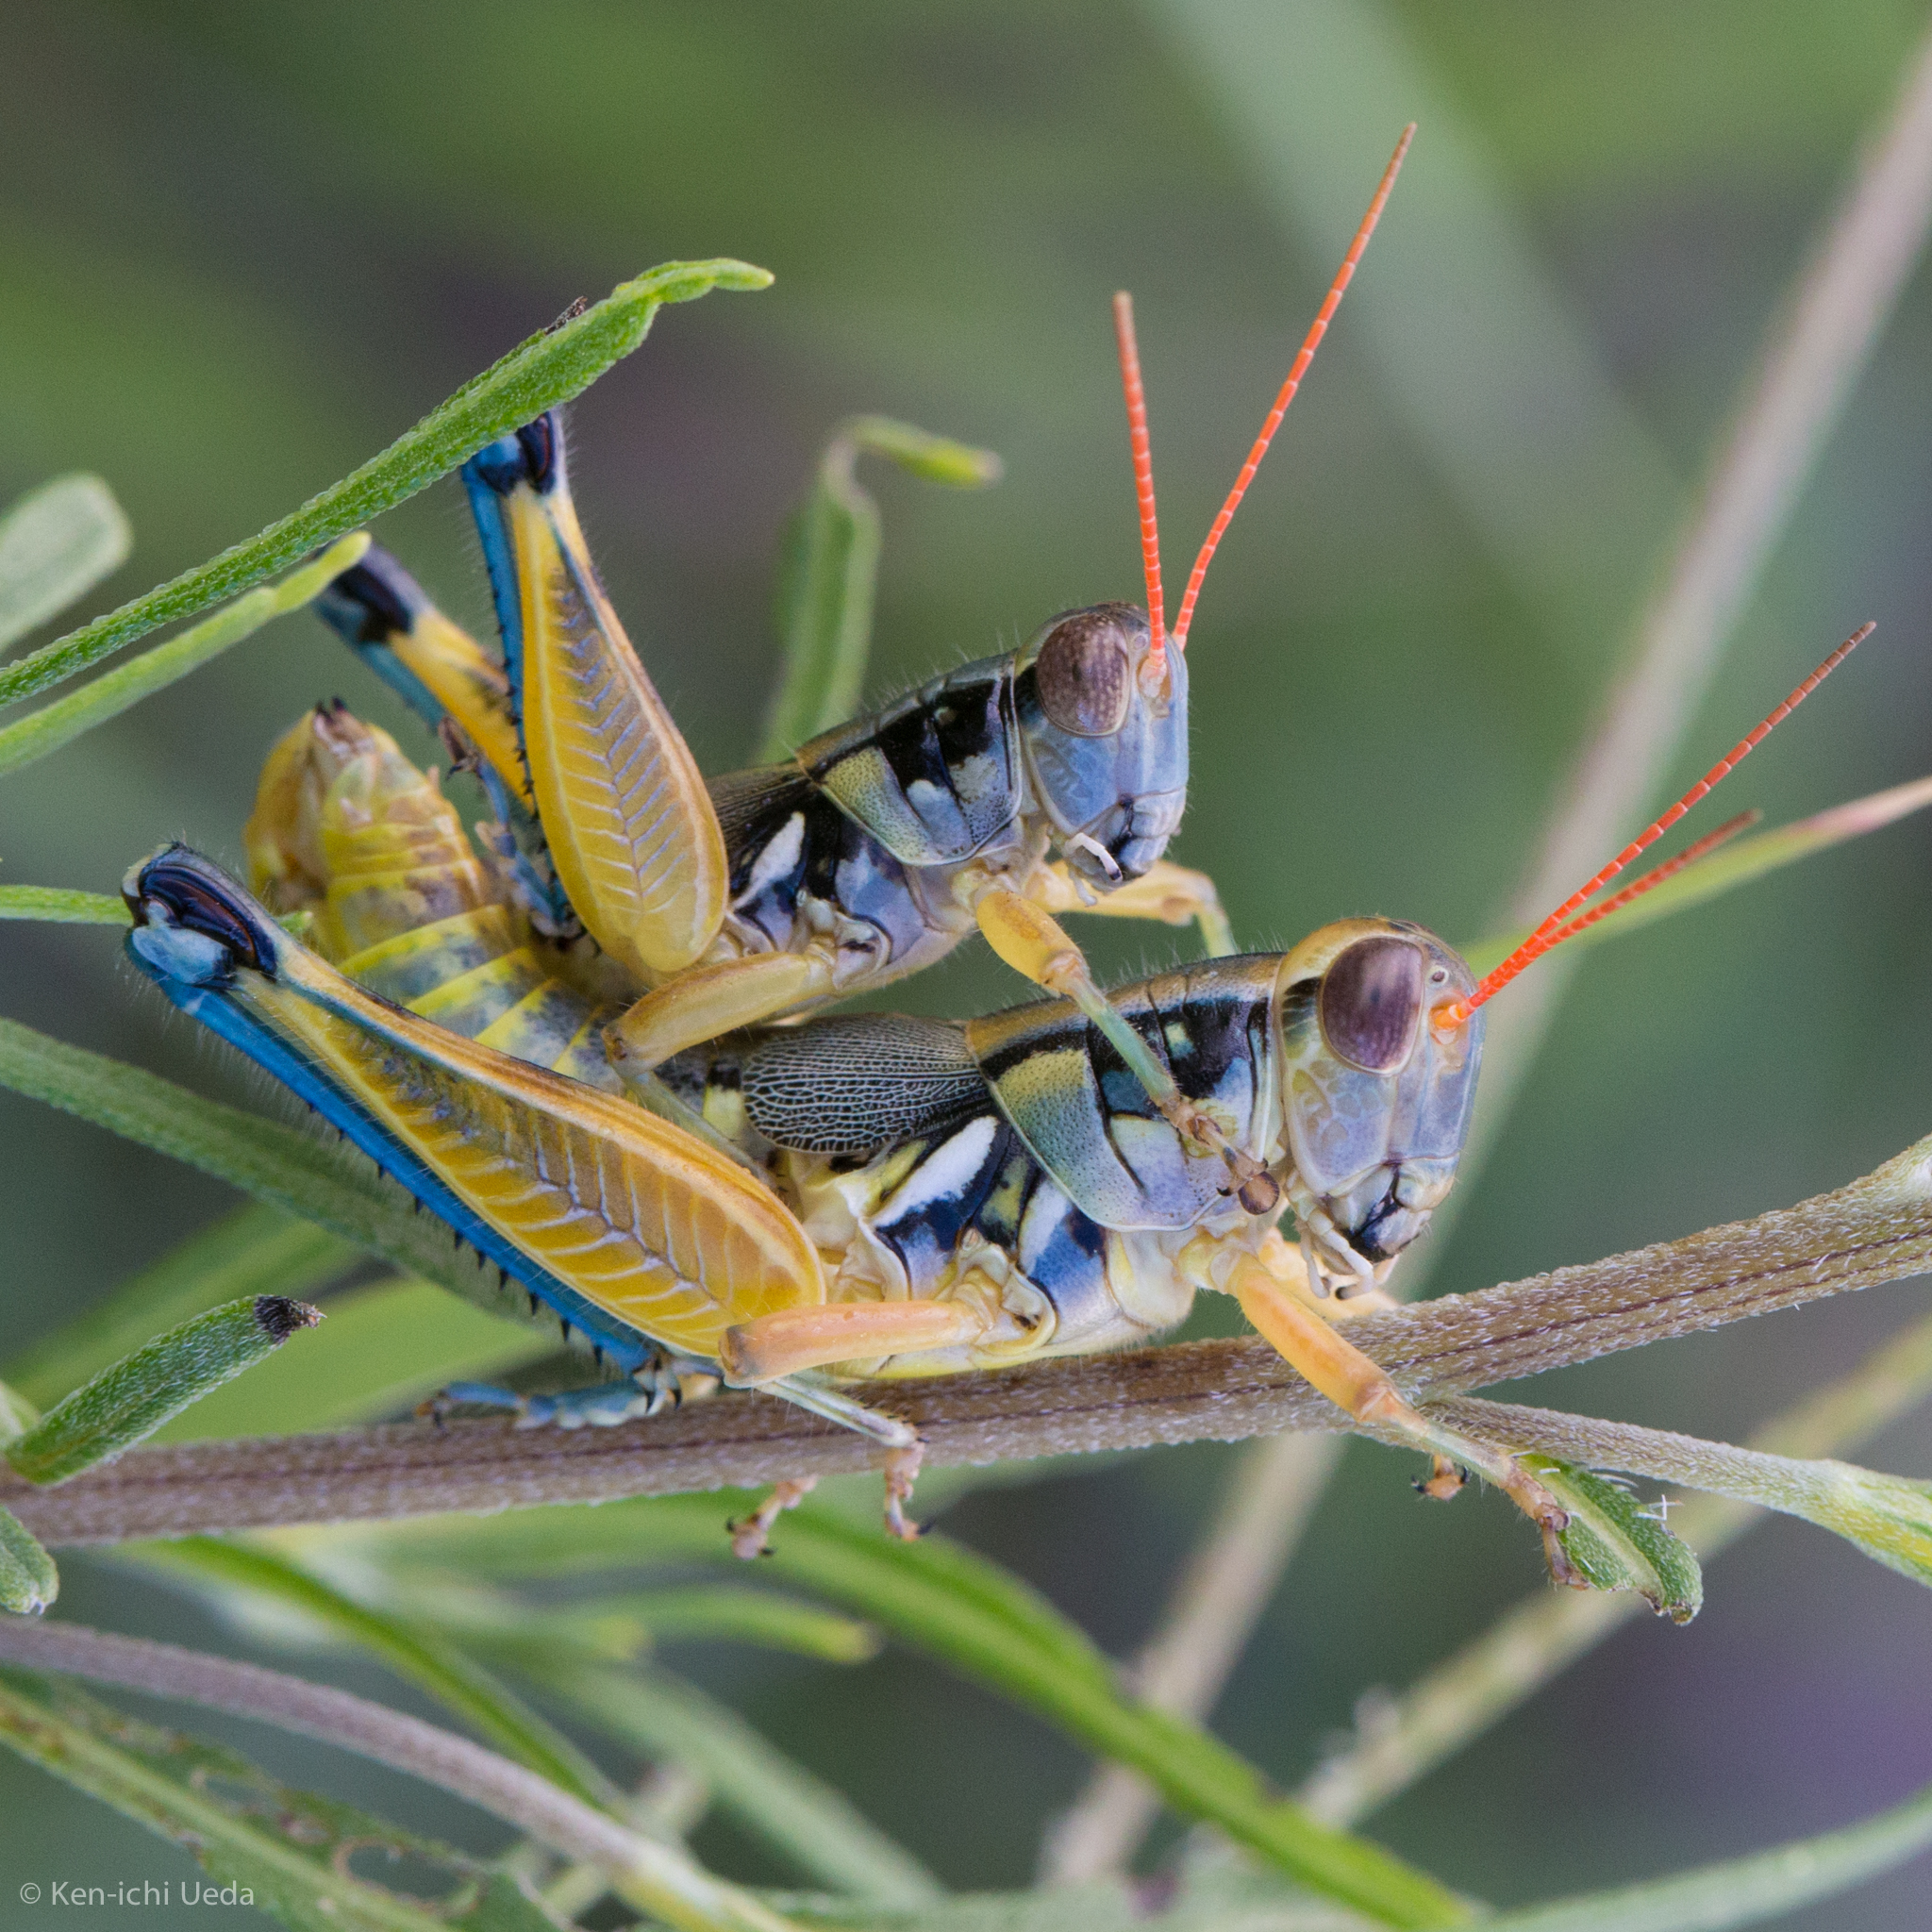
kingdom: Animalia
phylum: Arthropoda
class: Insecta
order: Orthoptera
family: Acrididae
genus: Melanoplus
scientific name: Melanoplus aridus
